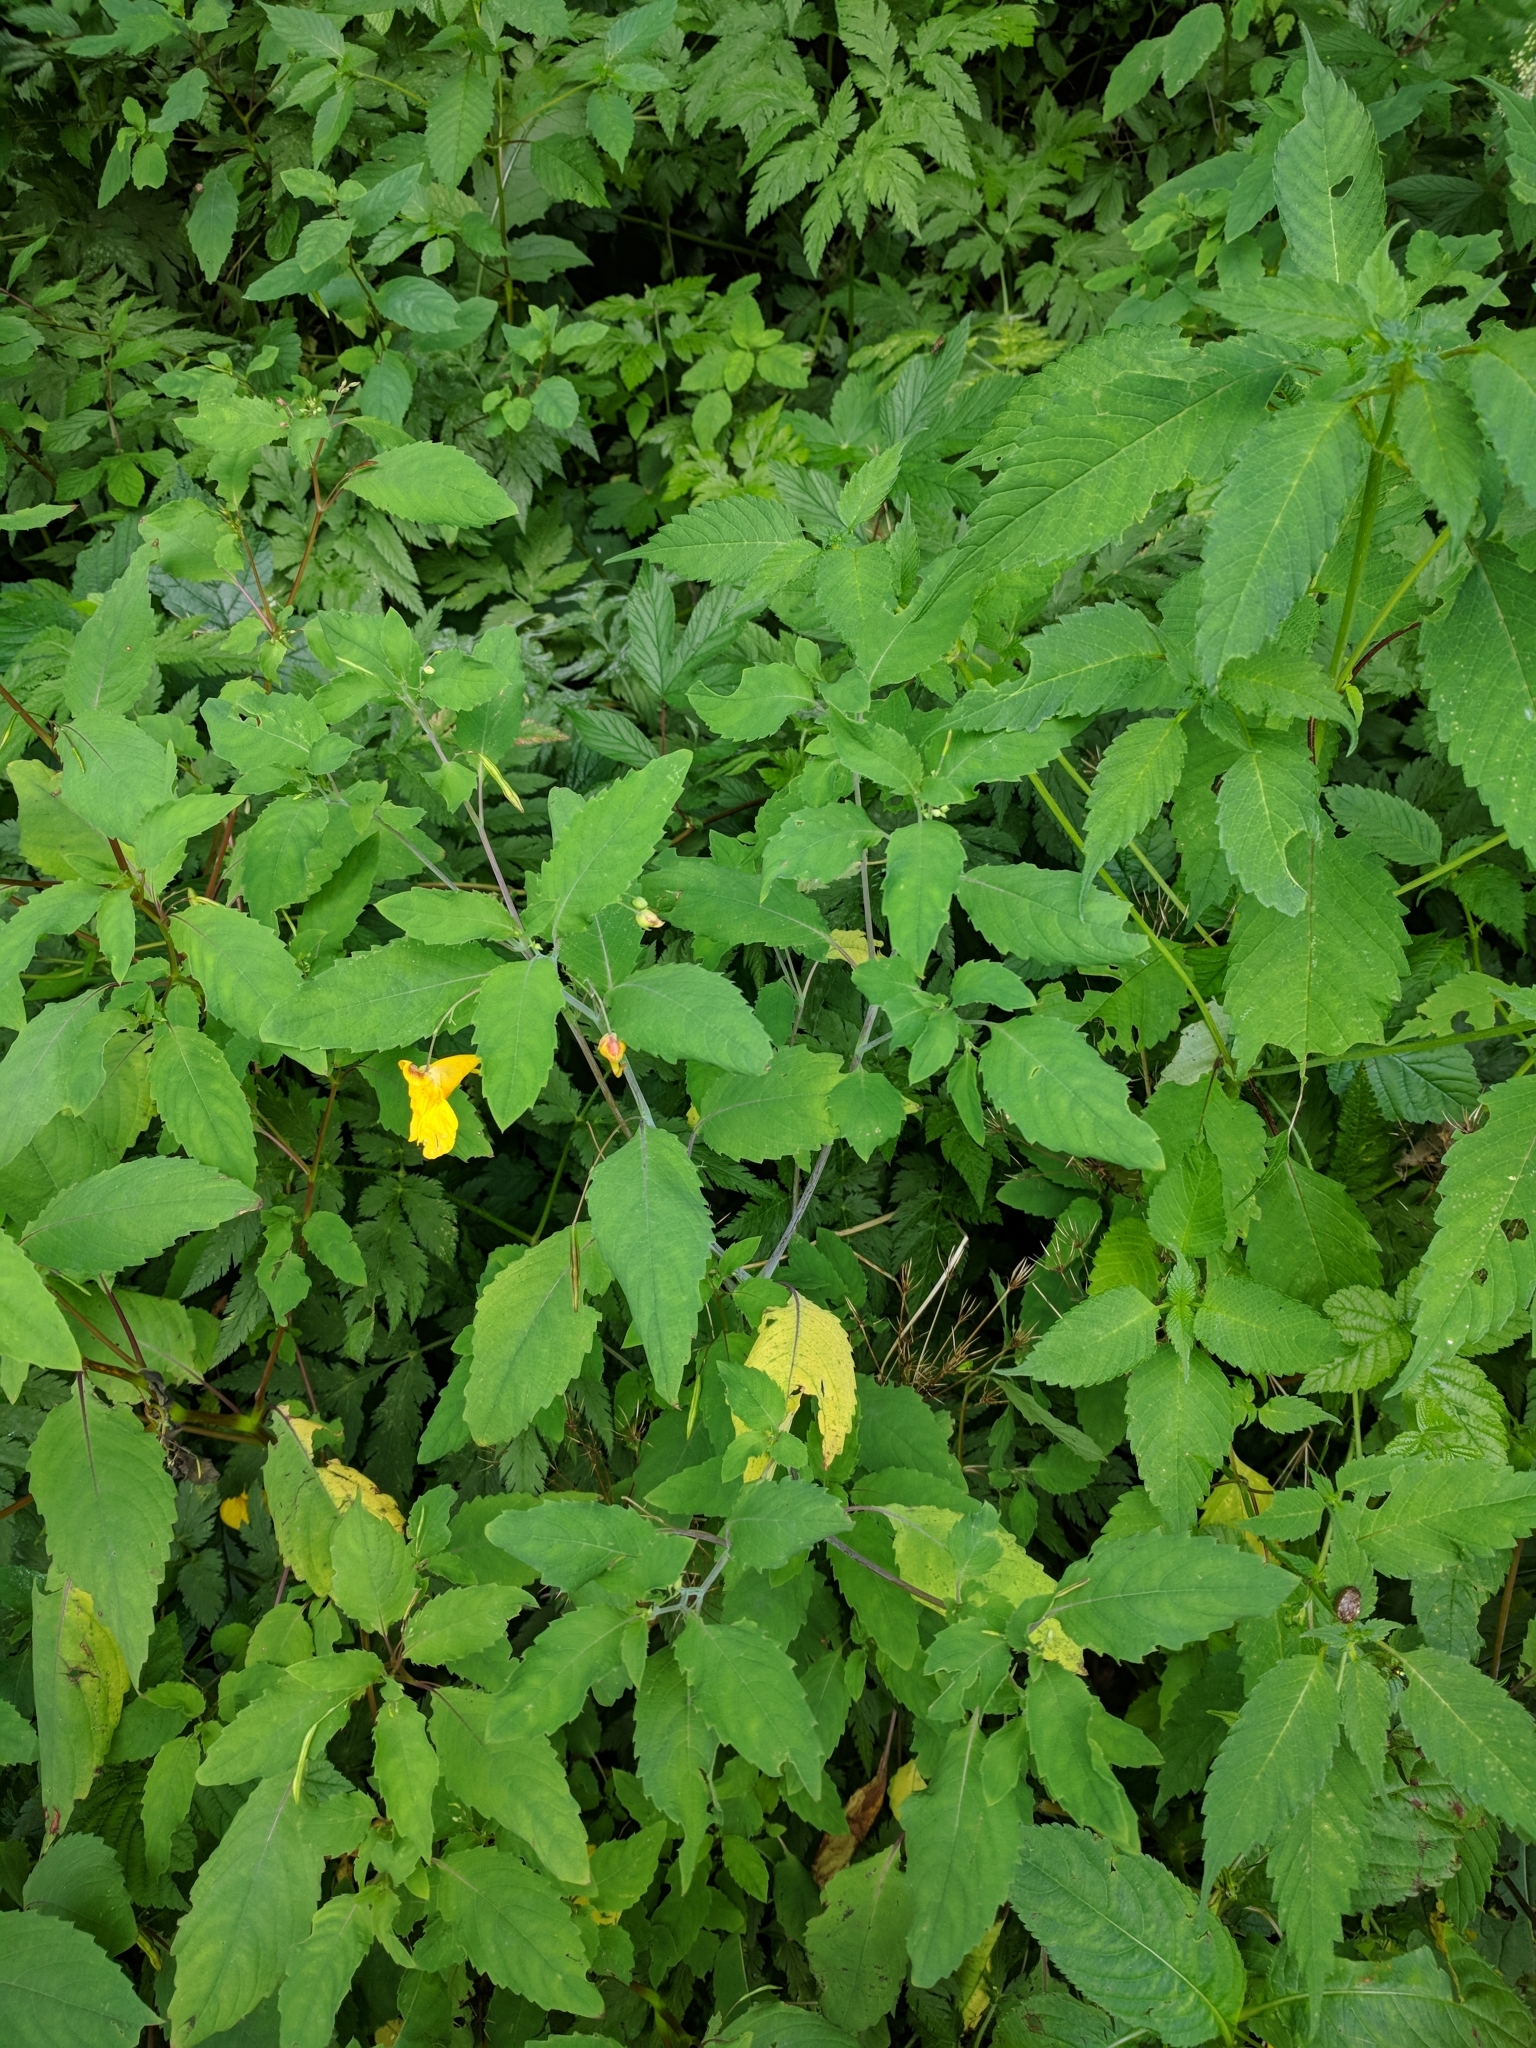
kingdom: Plantae
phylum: Tracheophyta
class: Magnoliopsida
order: Ericales
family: Balsaminaceae
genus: Impatiens
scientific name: Impatiens noli-tangere
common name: Touch-me-not balsam
